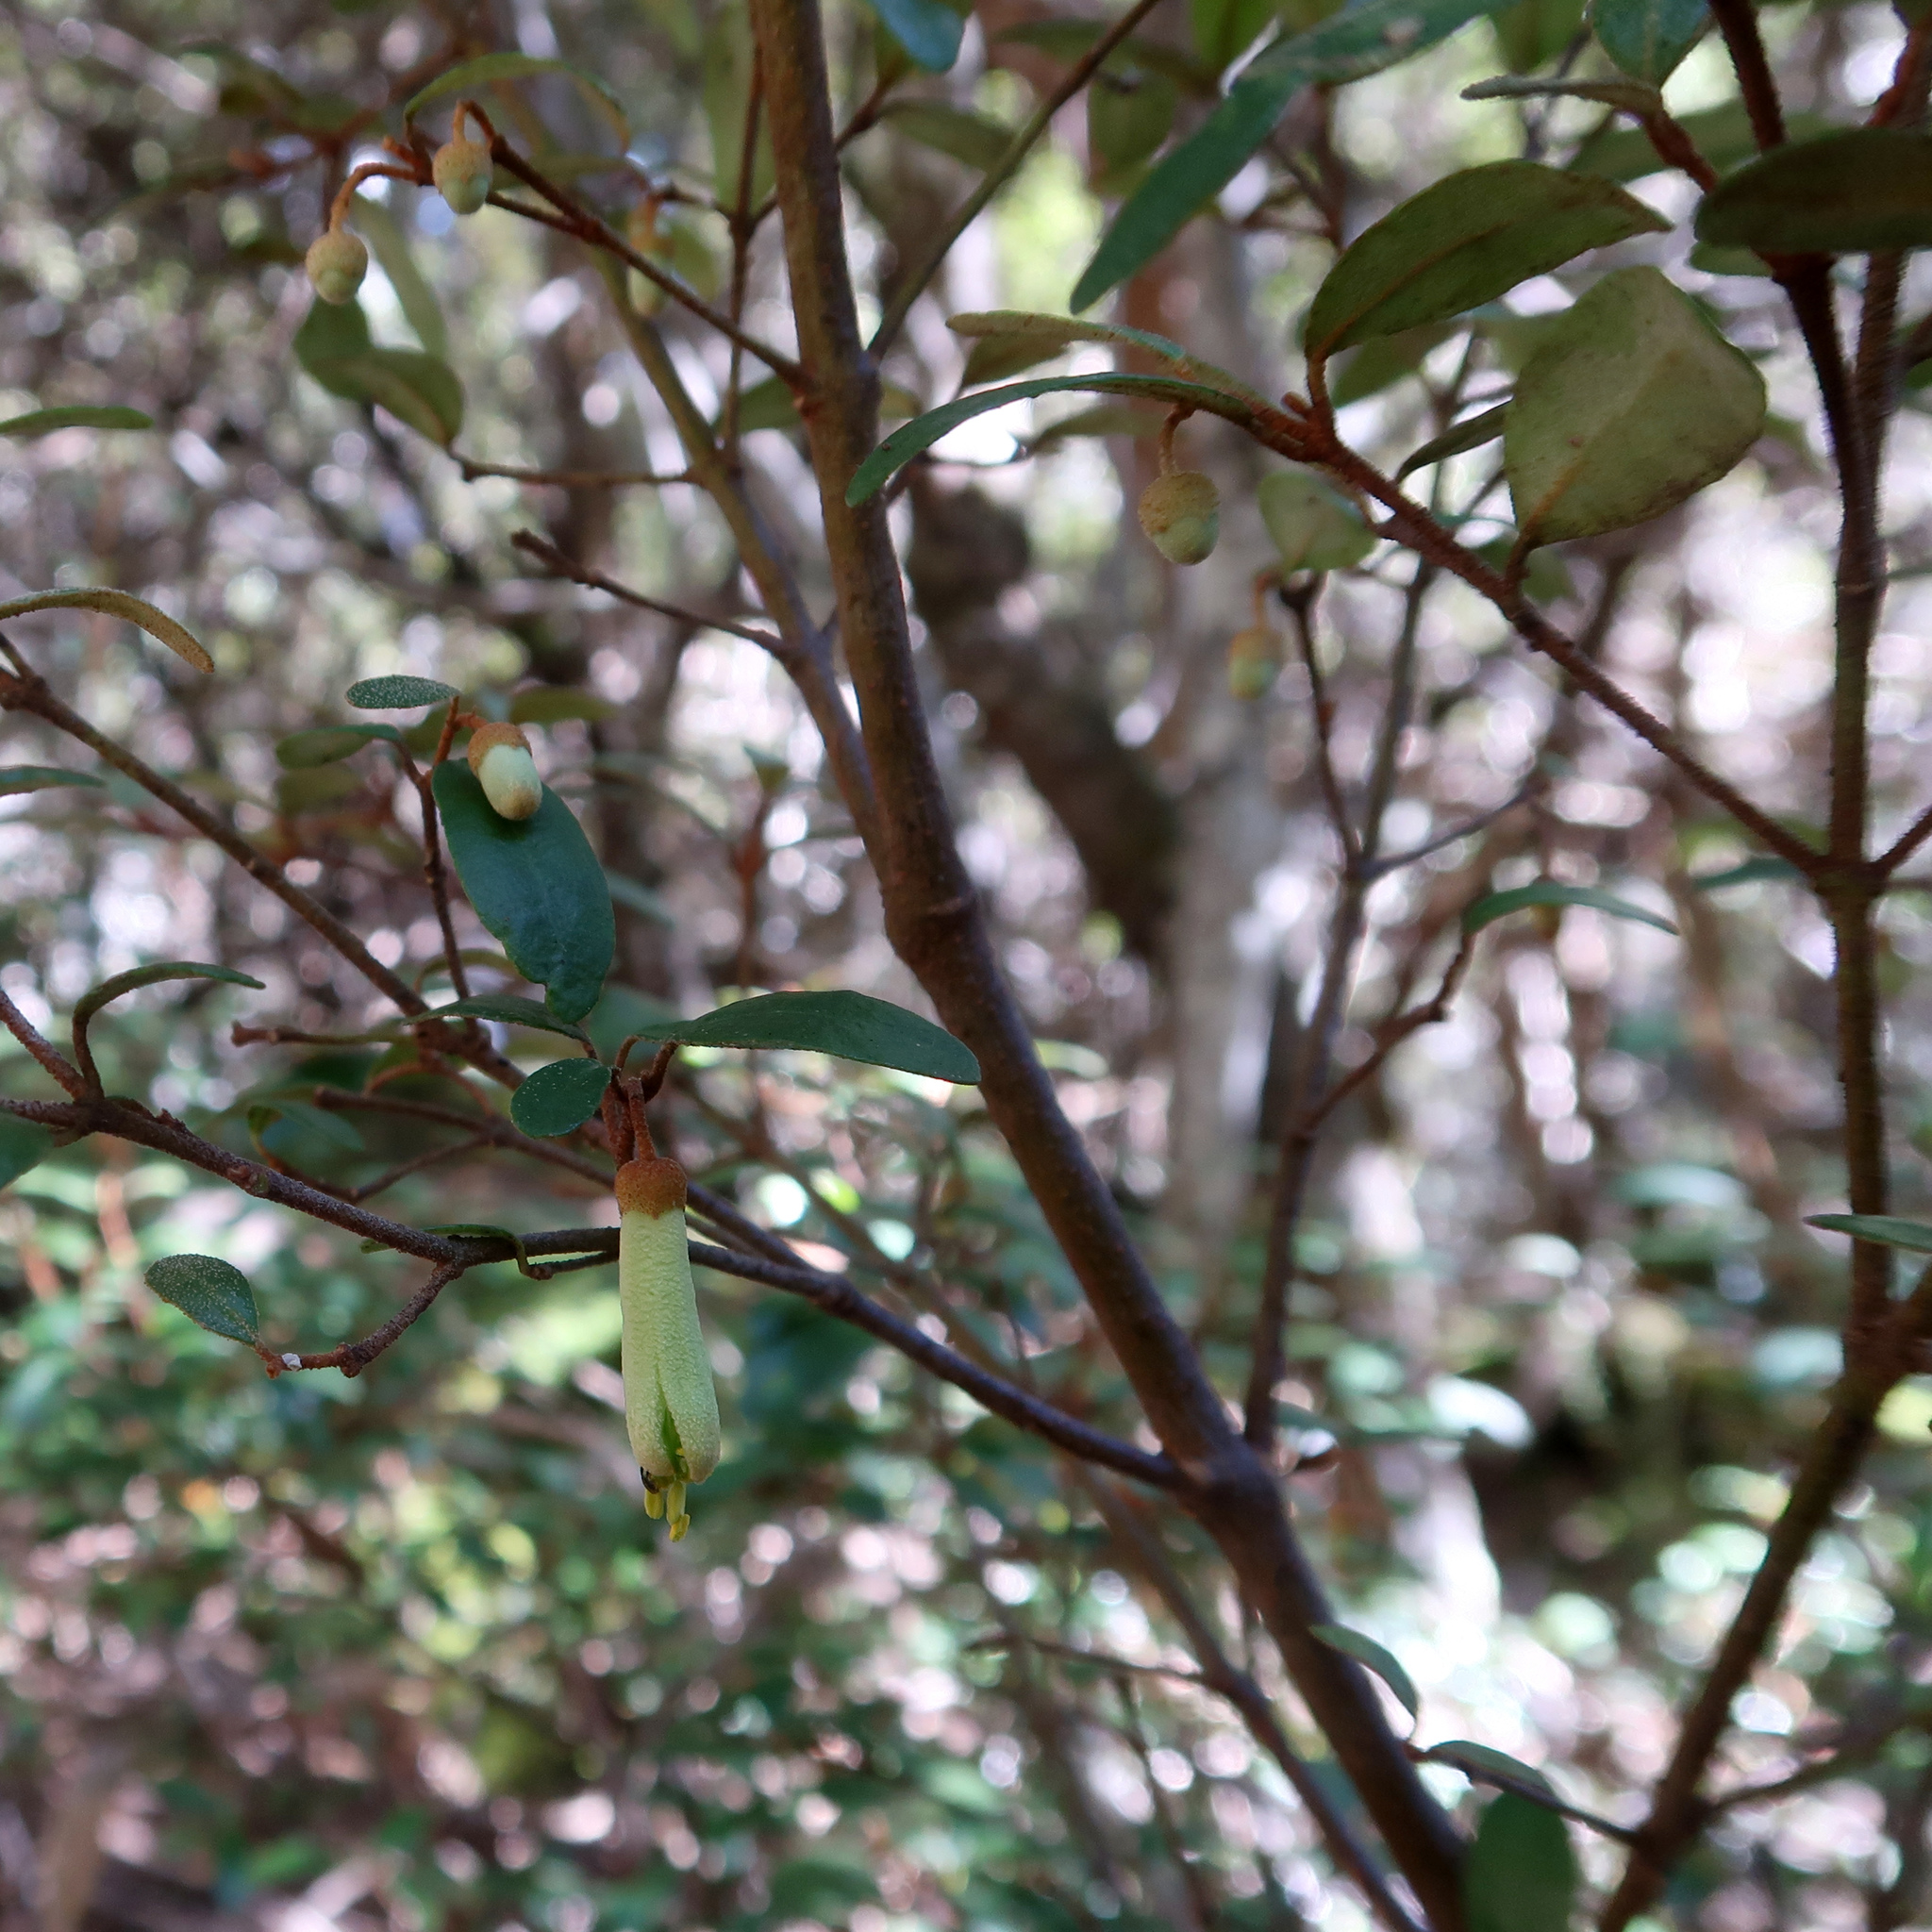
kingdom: Plantae
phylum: Tracheophyta
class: Magnoliopsida
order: Sapindales
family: Rutaceae
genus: Correa
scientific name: Correa lawrenceana
